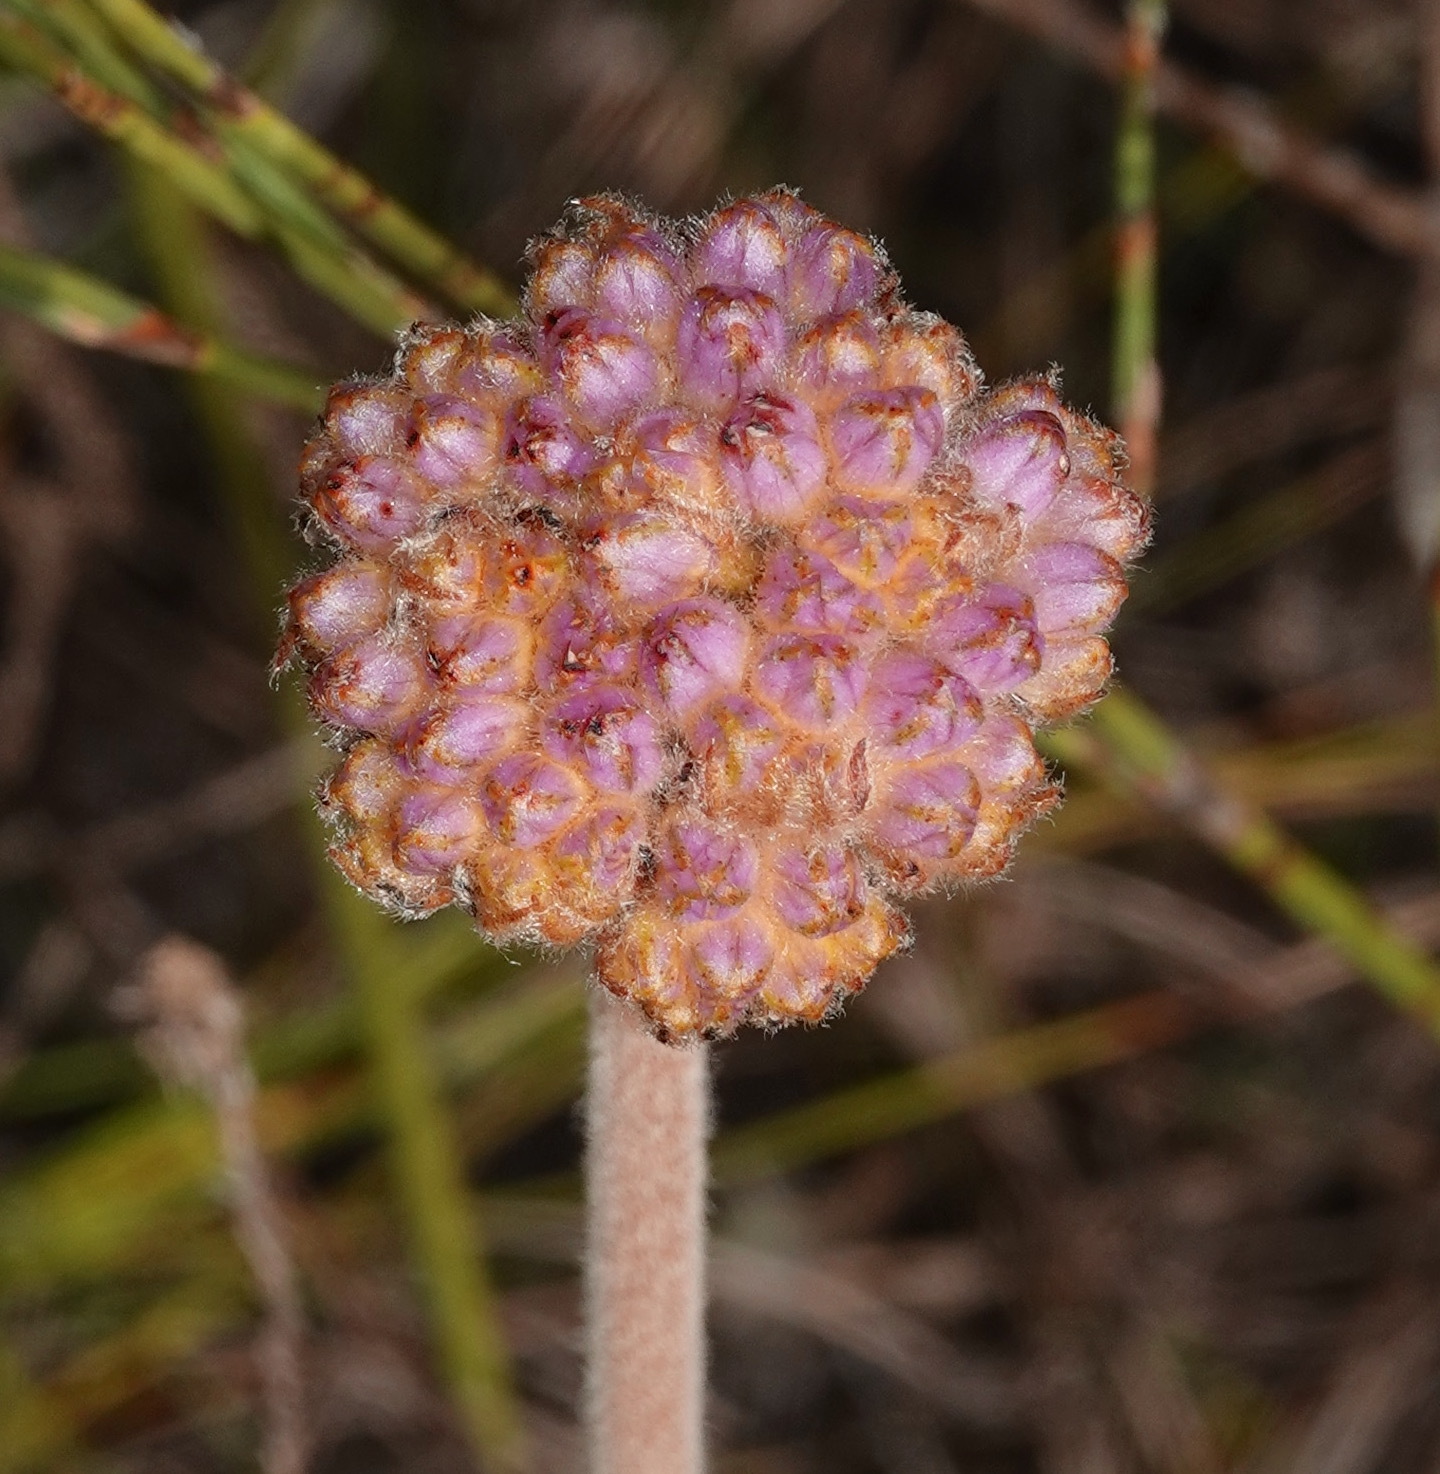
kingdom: Plantae
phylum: Tracheophyta
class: Liliopsida
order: Commelinales
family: Haemodoraceae
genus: Dilatris
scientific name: Dilatris pillansii
